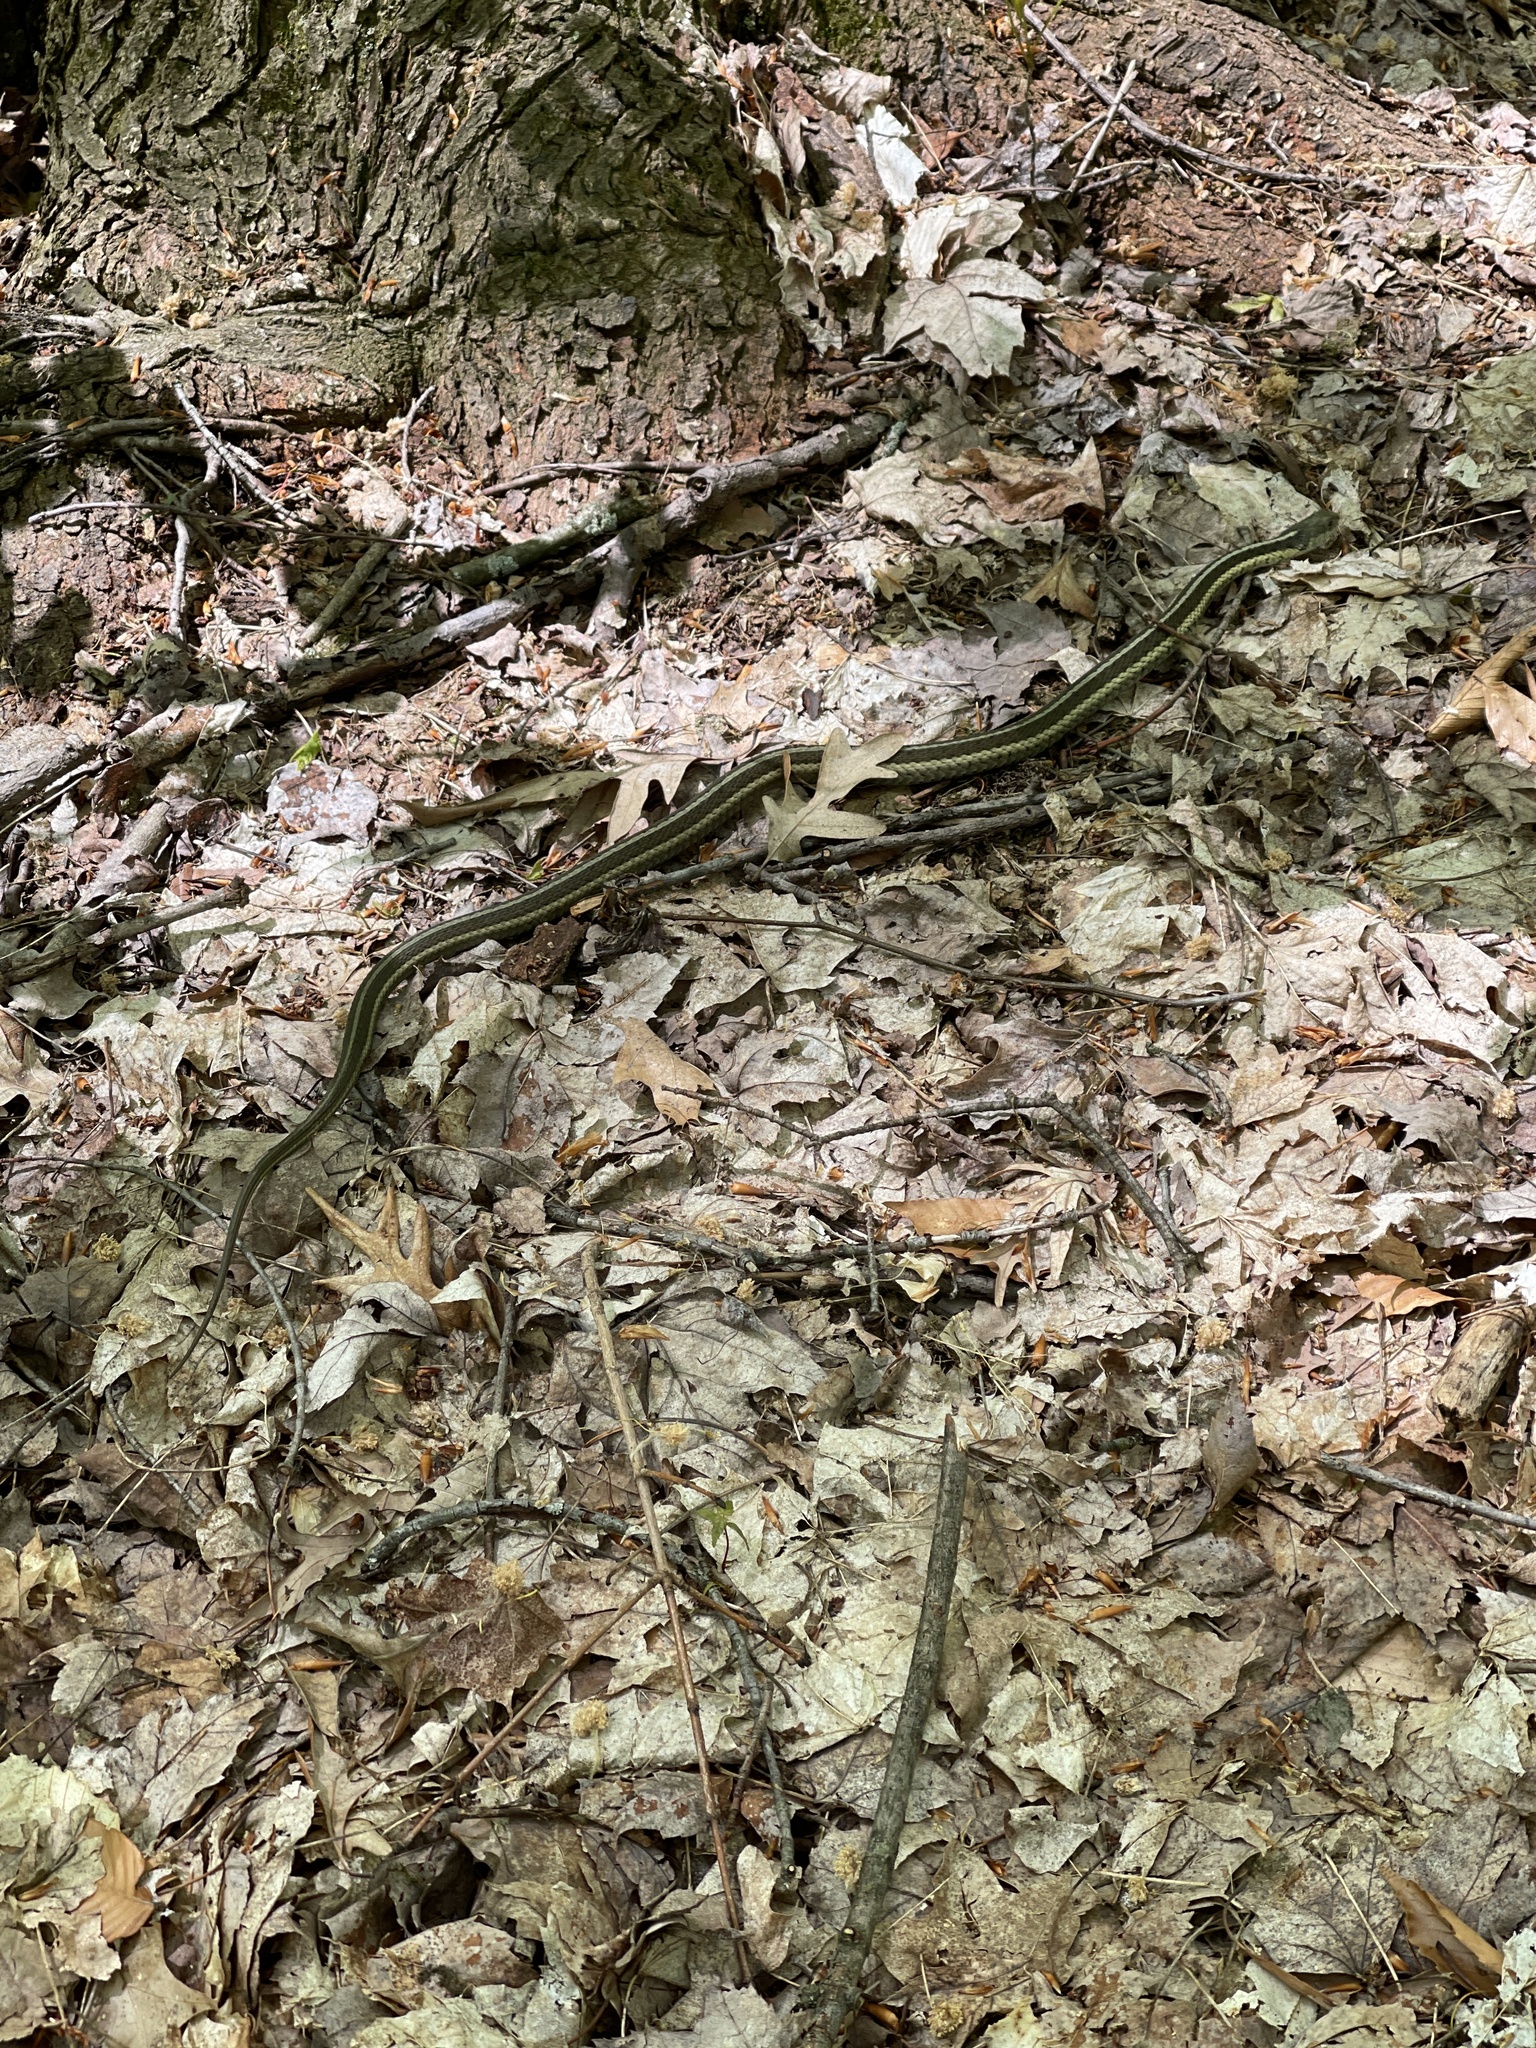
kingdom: Animalia
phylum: Chordata
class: Squamata
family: Colubridae
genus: Thamnophis
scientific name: Thamnophis sirtalis
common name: Common garter snake
